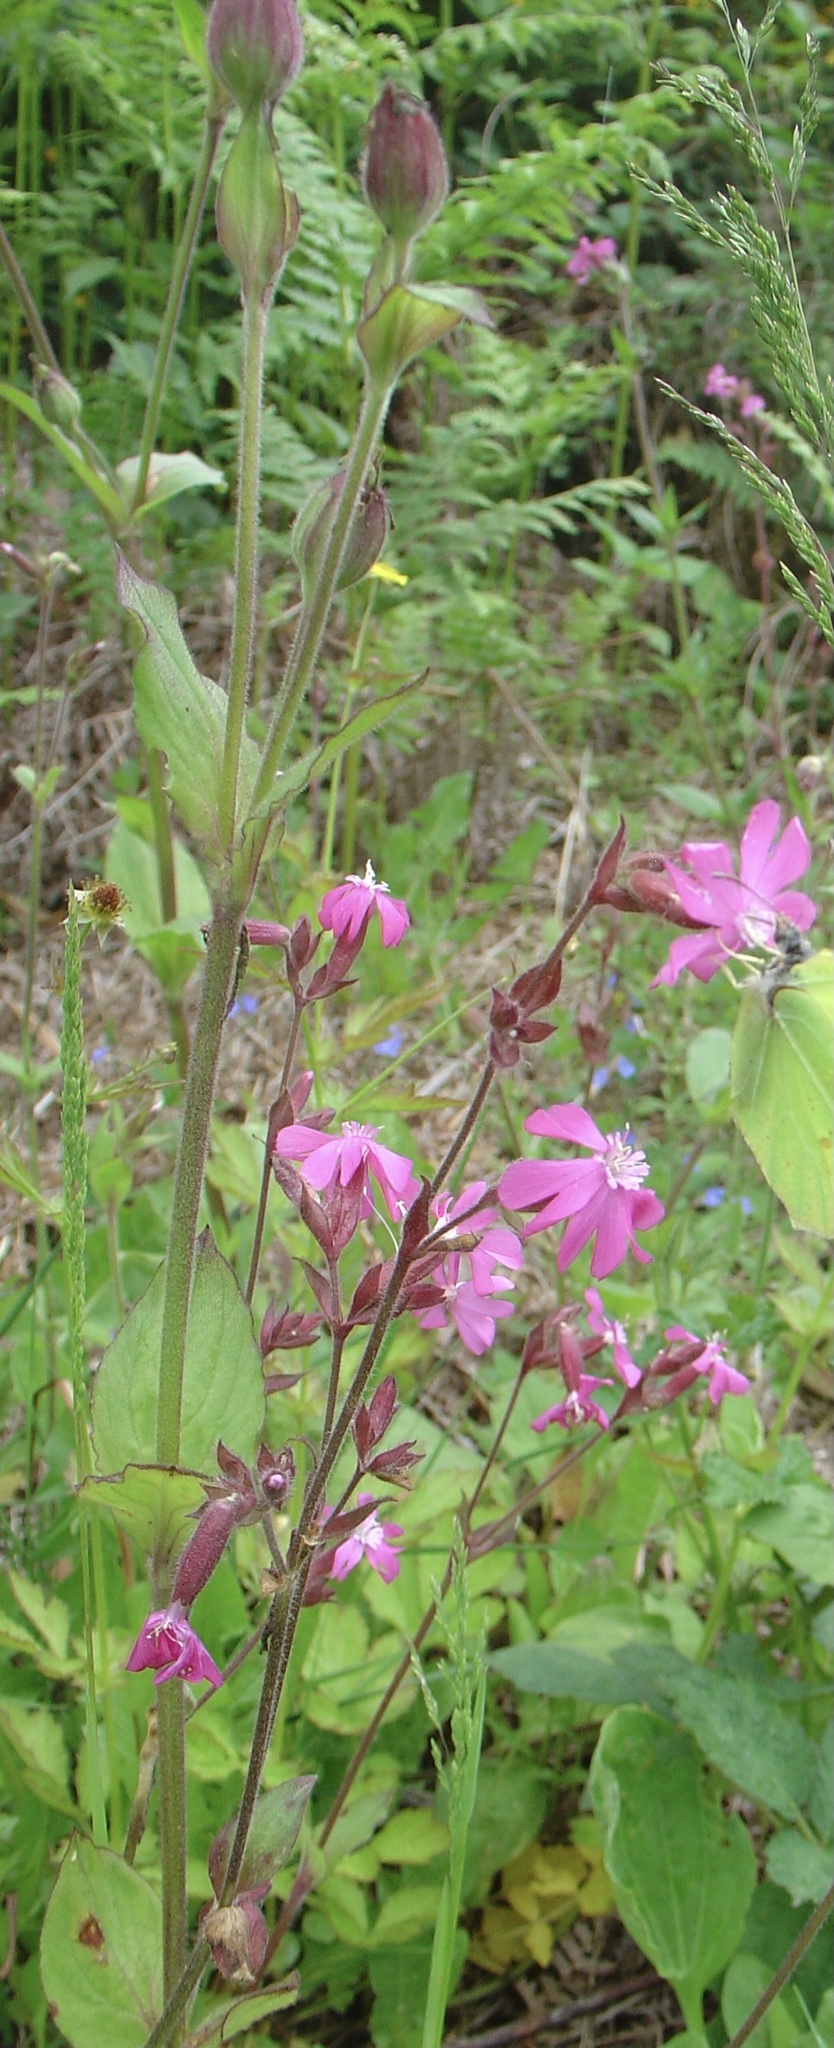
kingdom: Plantae
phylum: Tracheophyta
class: Magnoliopsida
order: Caryophyllales
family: Caryophyllaceae
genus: Silene
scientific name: Silene dioica
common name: Red campion
